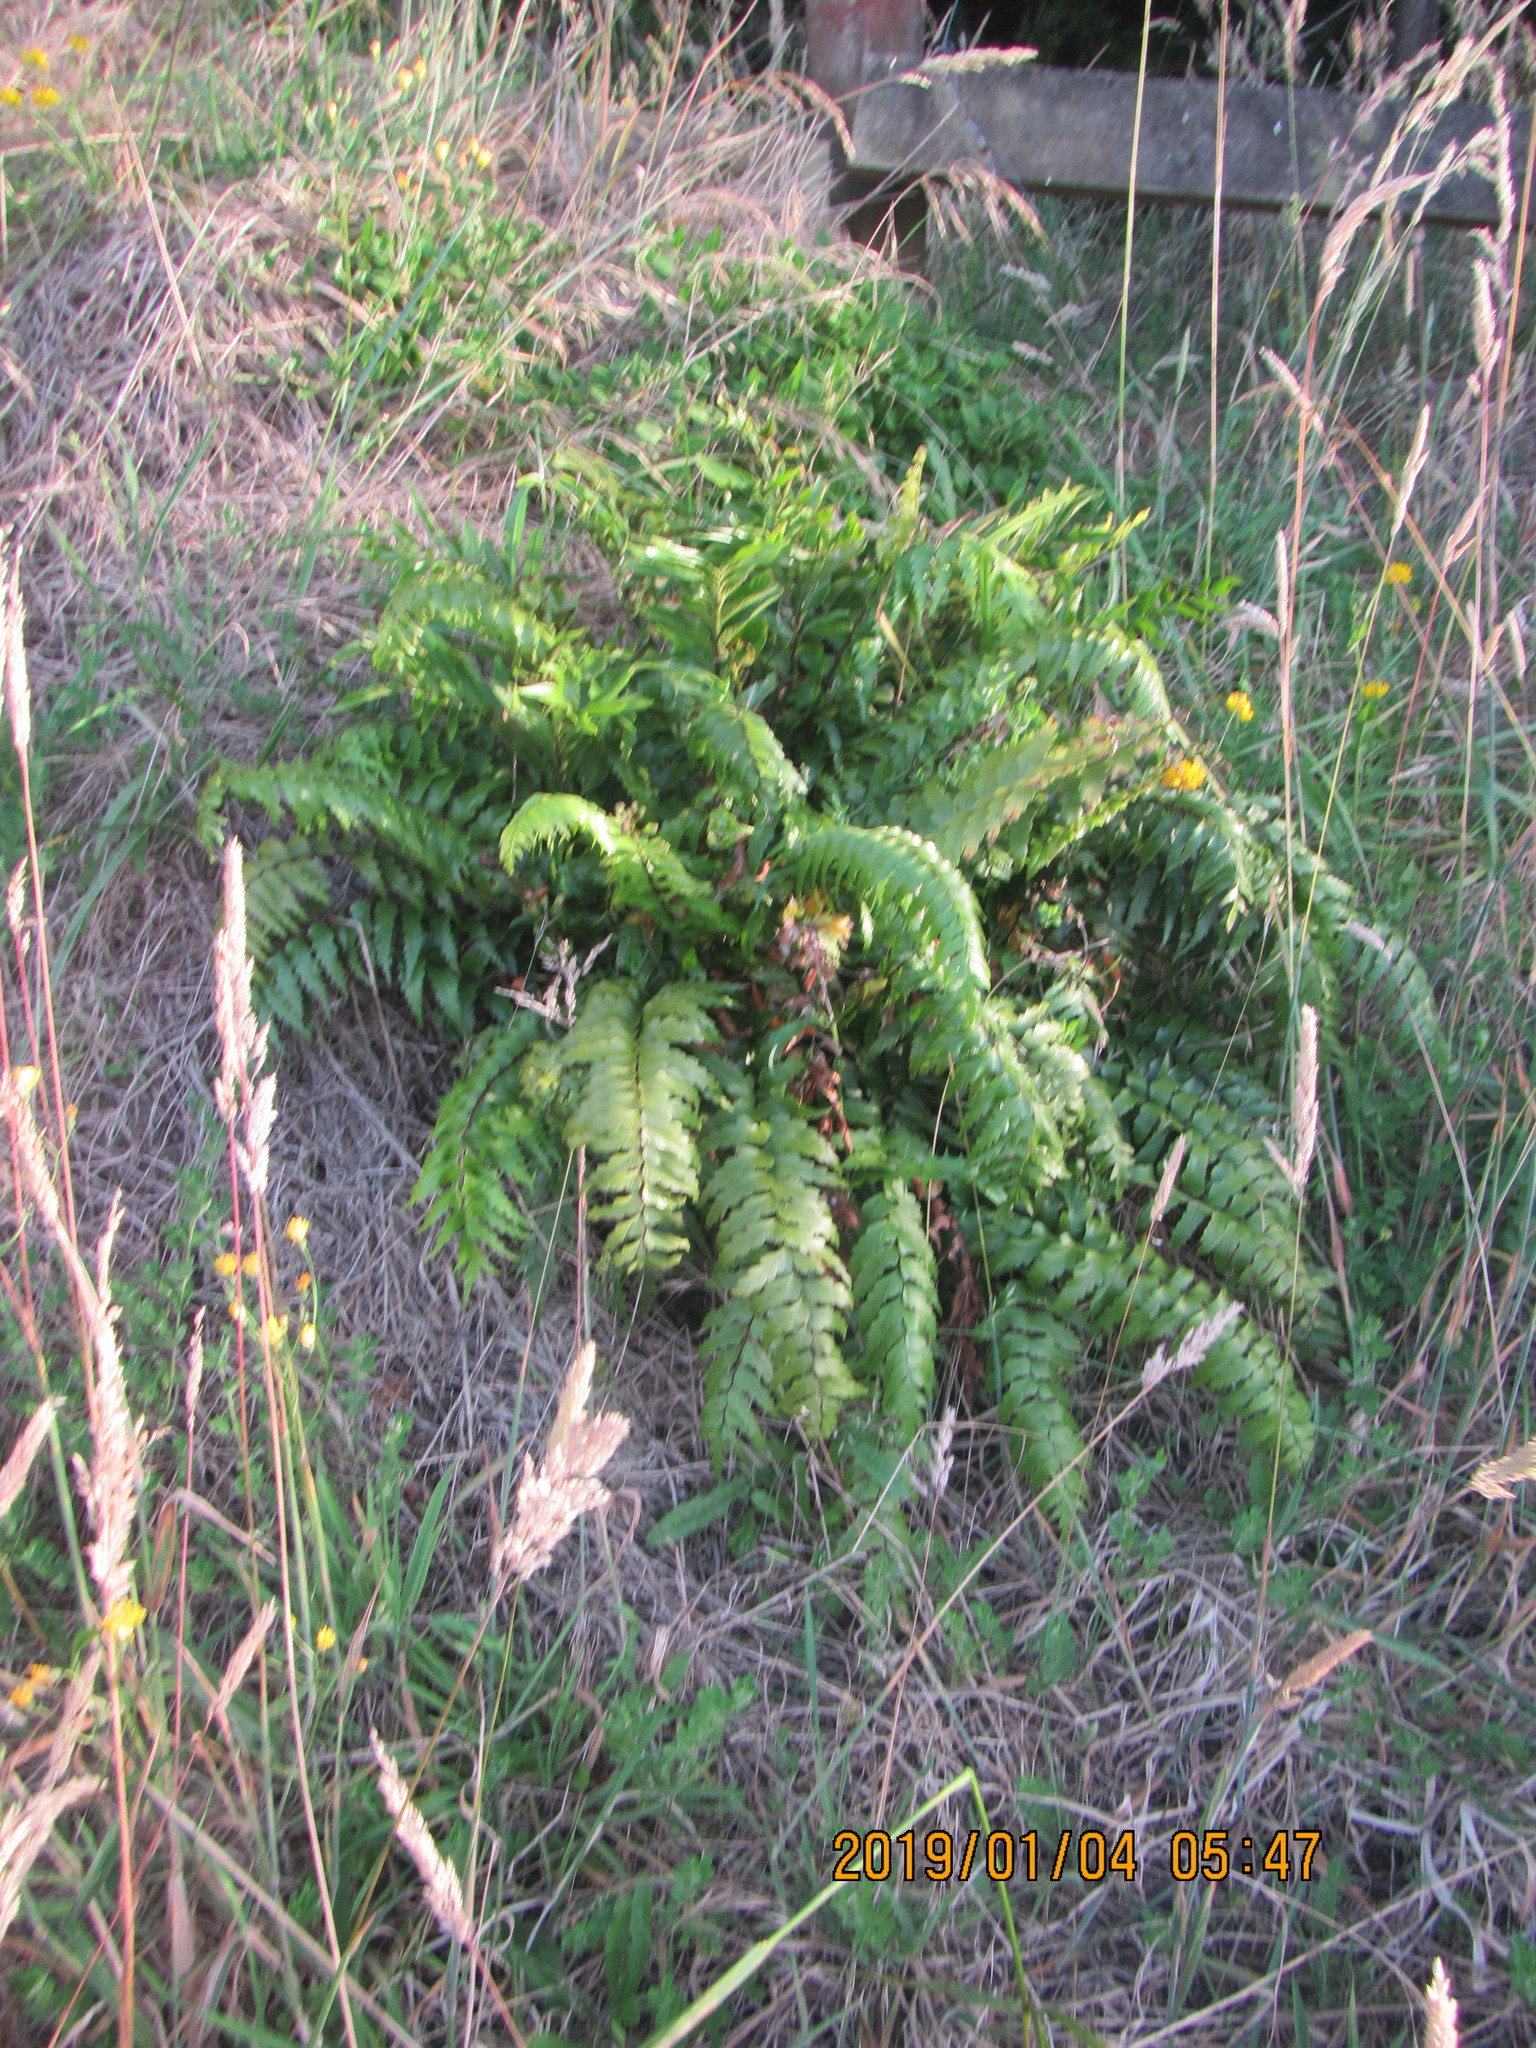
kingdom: Plantae
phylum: Tracheophyta
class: Polypodiopsida
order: Polypodiales
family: Aspleniaceae
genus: Asplenium
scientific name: Asplenium polyodon
